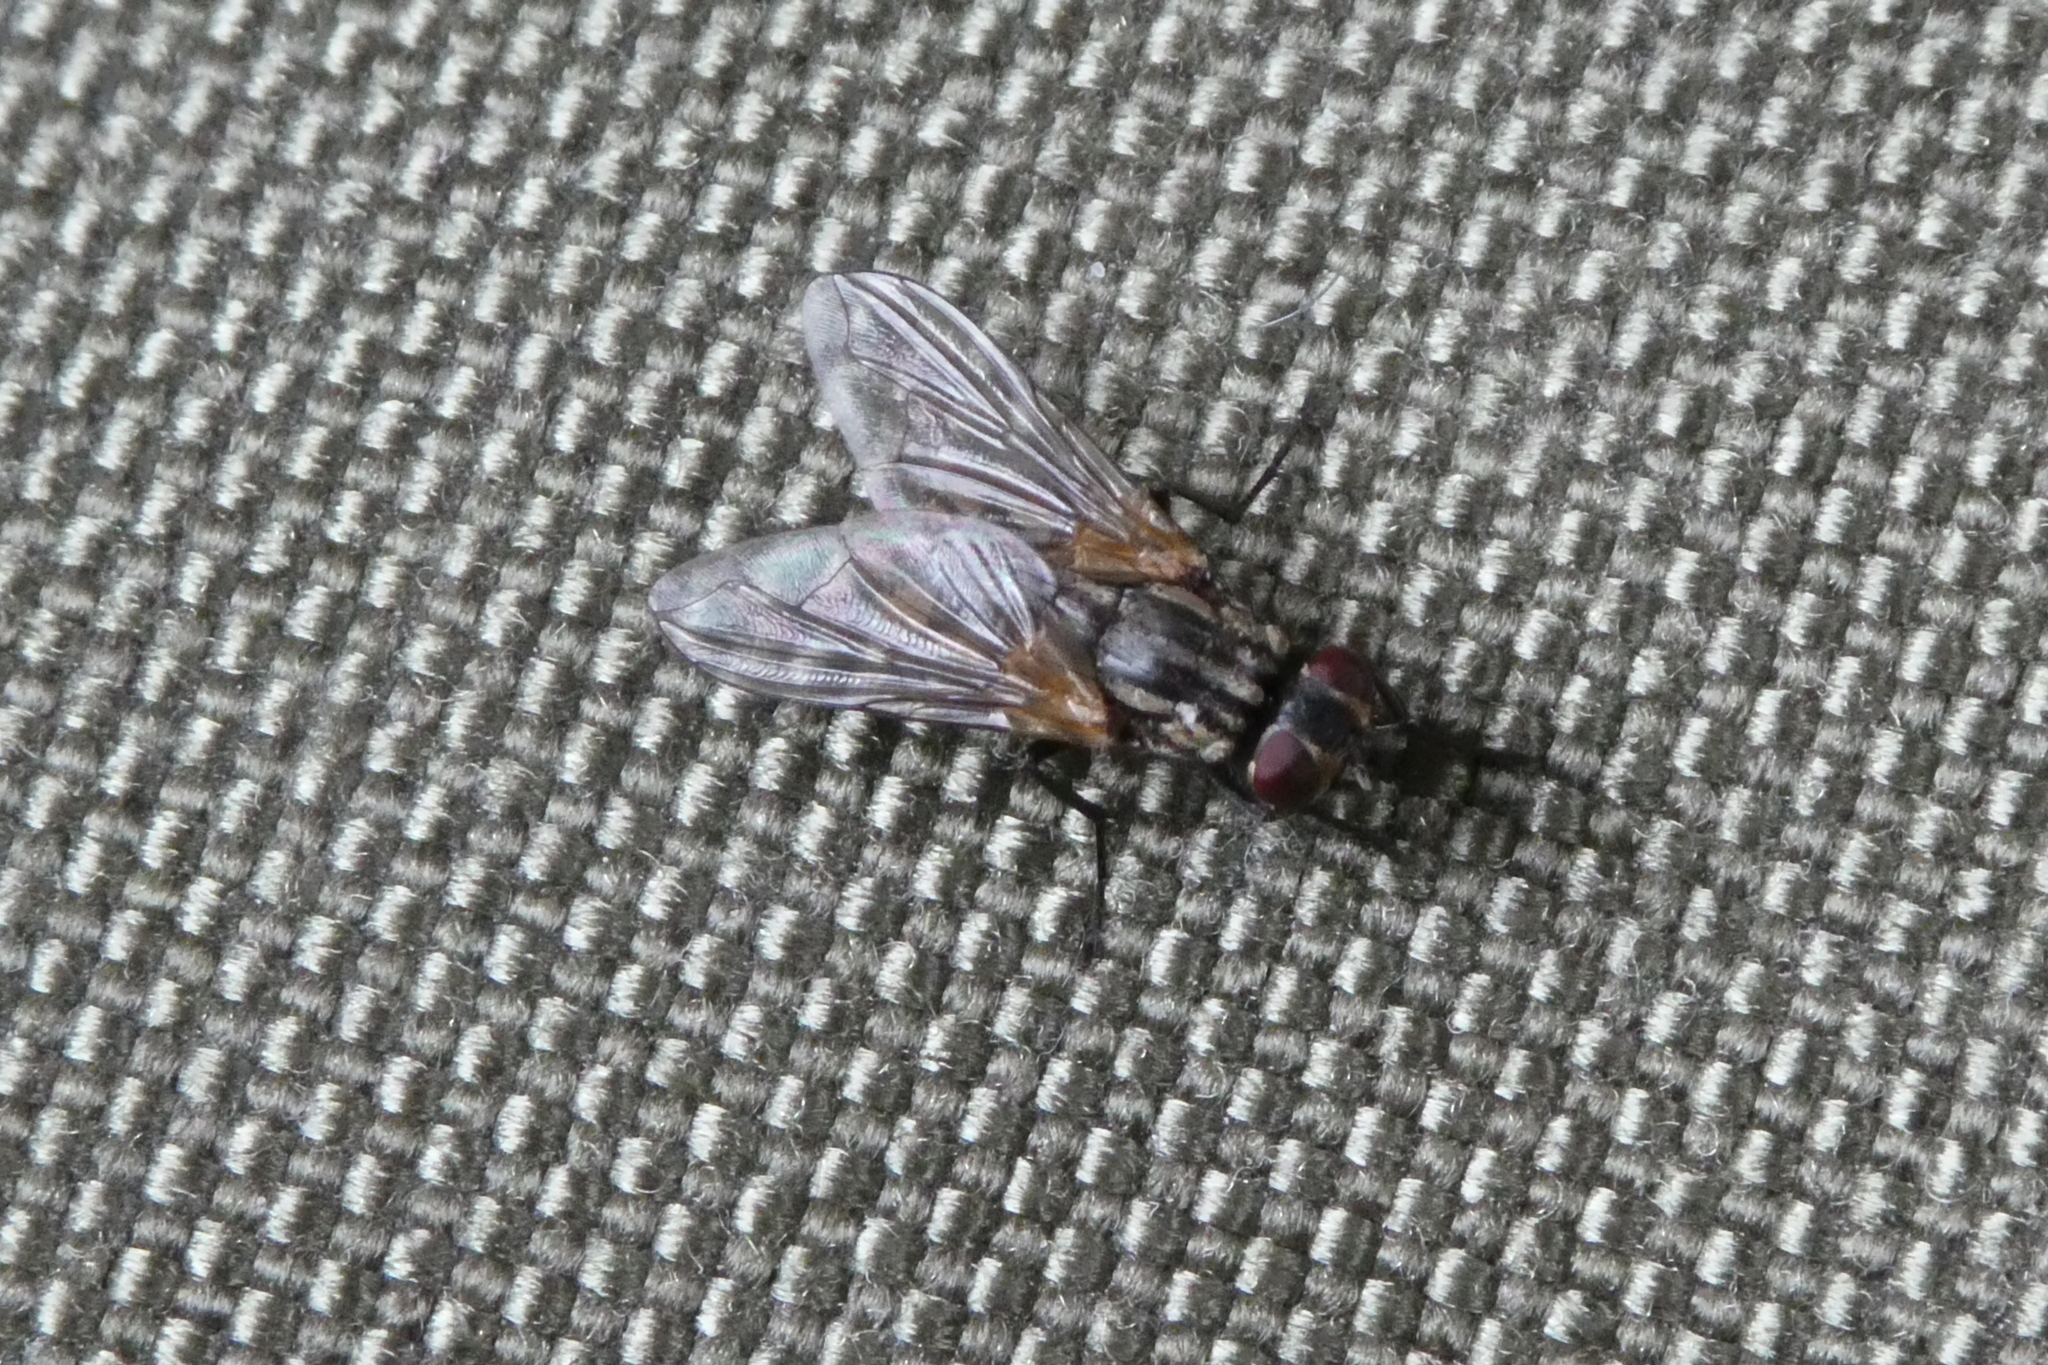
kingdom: Animalia
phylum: Arthropoda
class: Insecta
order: Diptera
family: Muscidae
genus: Musca
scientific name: Musca domestica
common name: House fly
